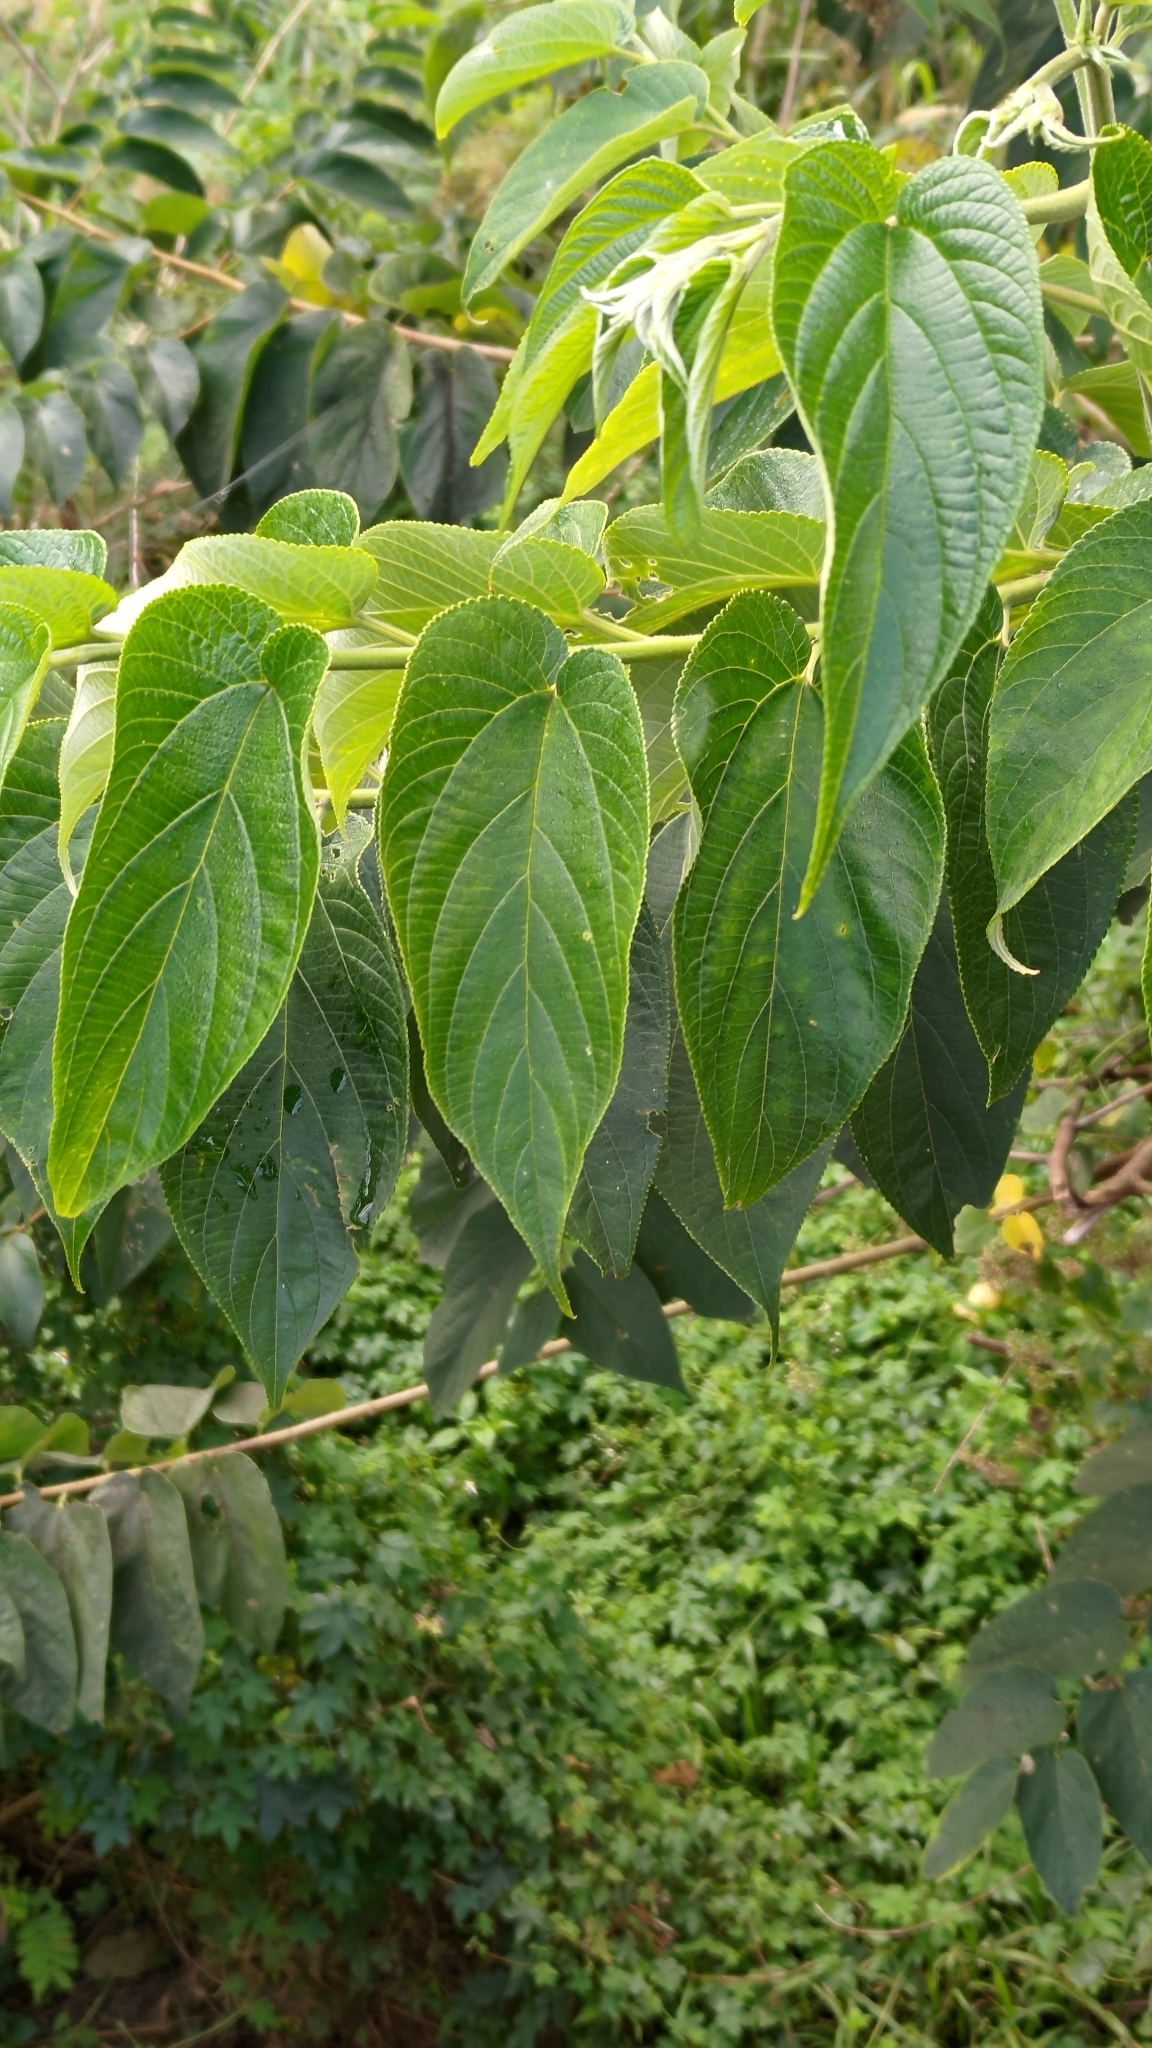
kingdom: Plantae
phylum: Tracheophyta
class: Magnoliopsida
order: Rosales
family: Cannabaceae
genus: Trema
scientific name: Trema orientale
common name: Indian charcoal tree
